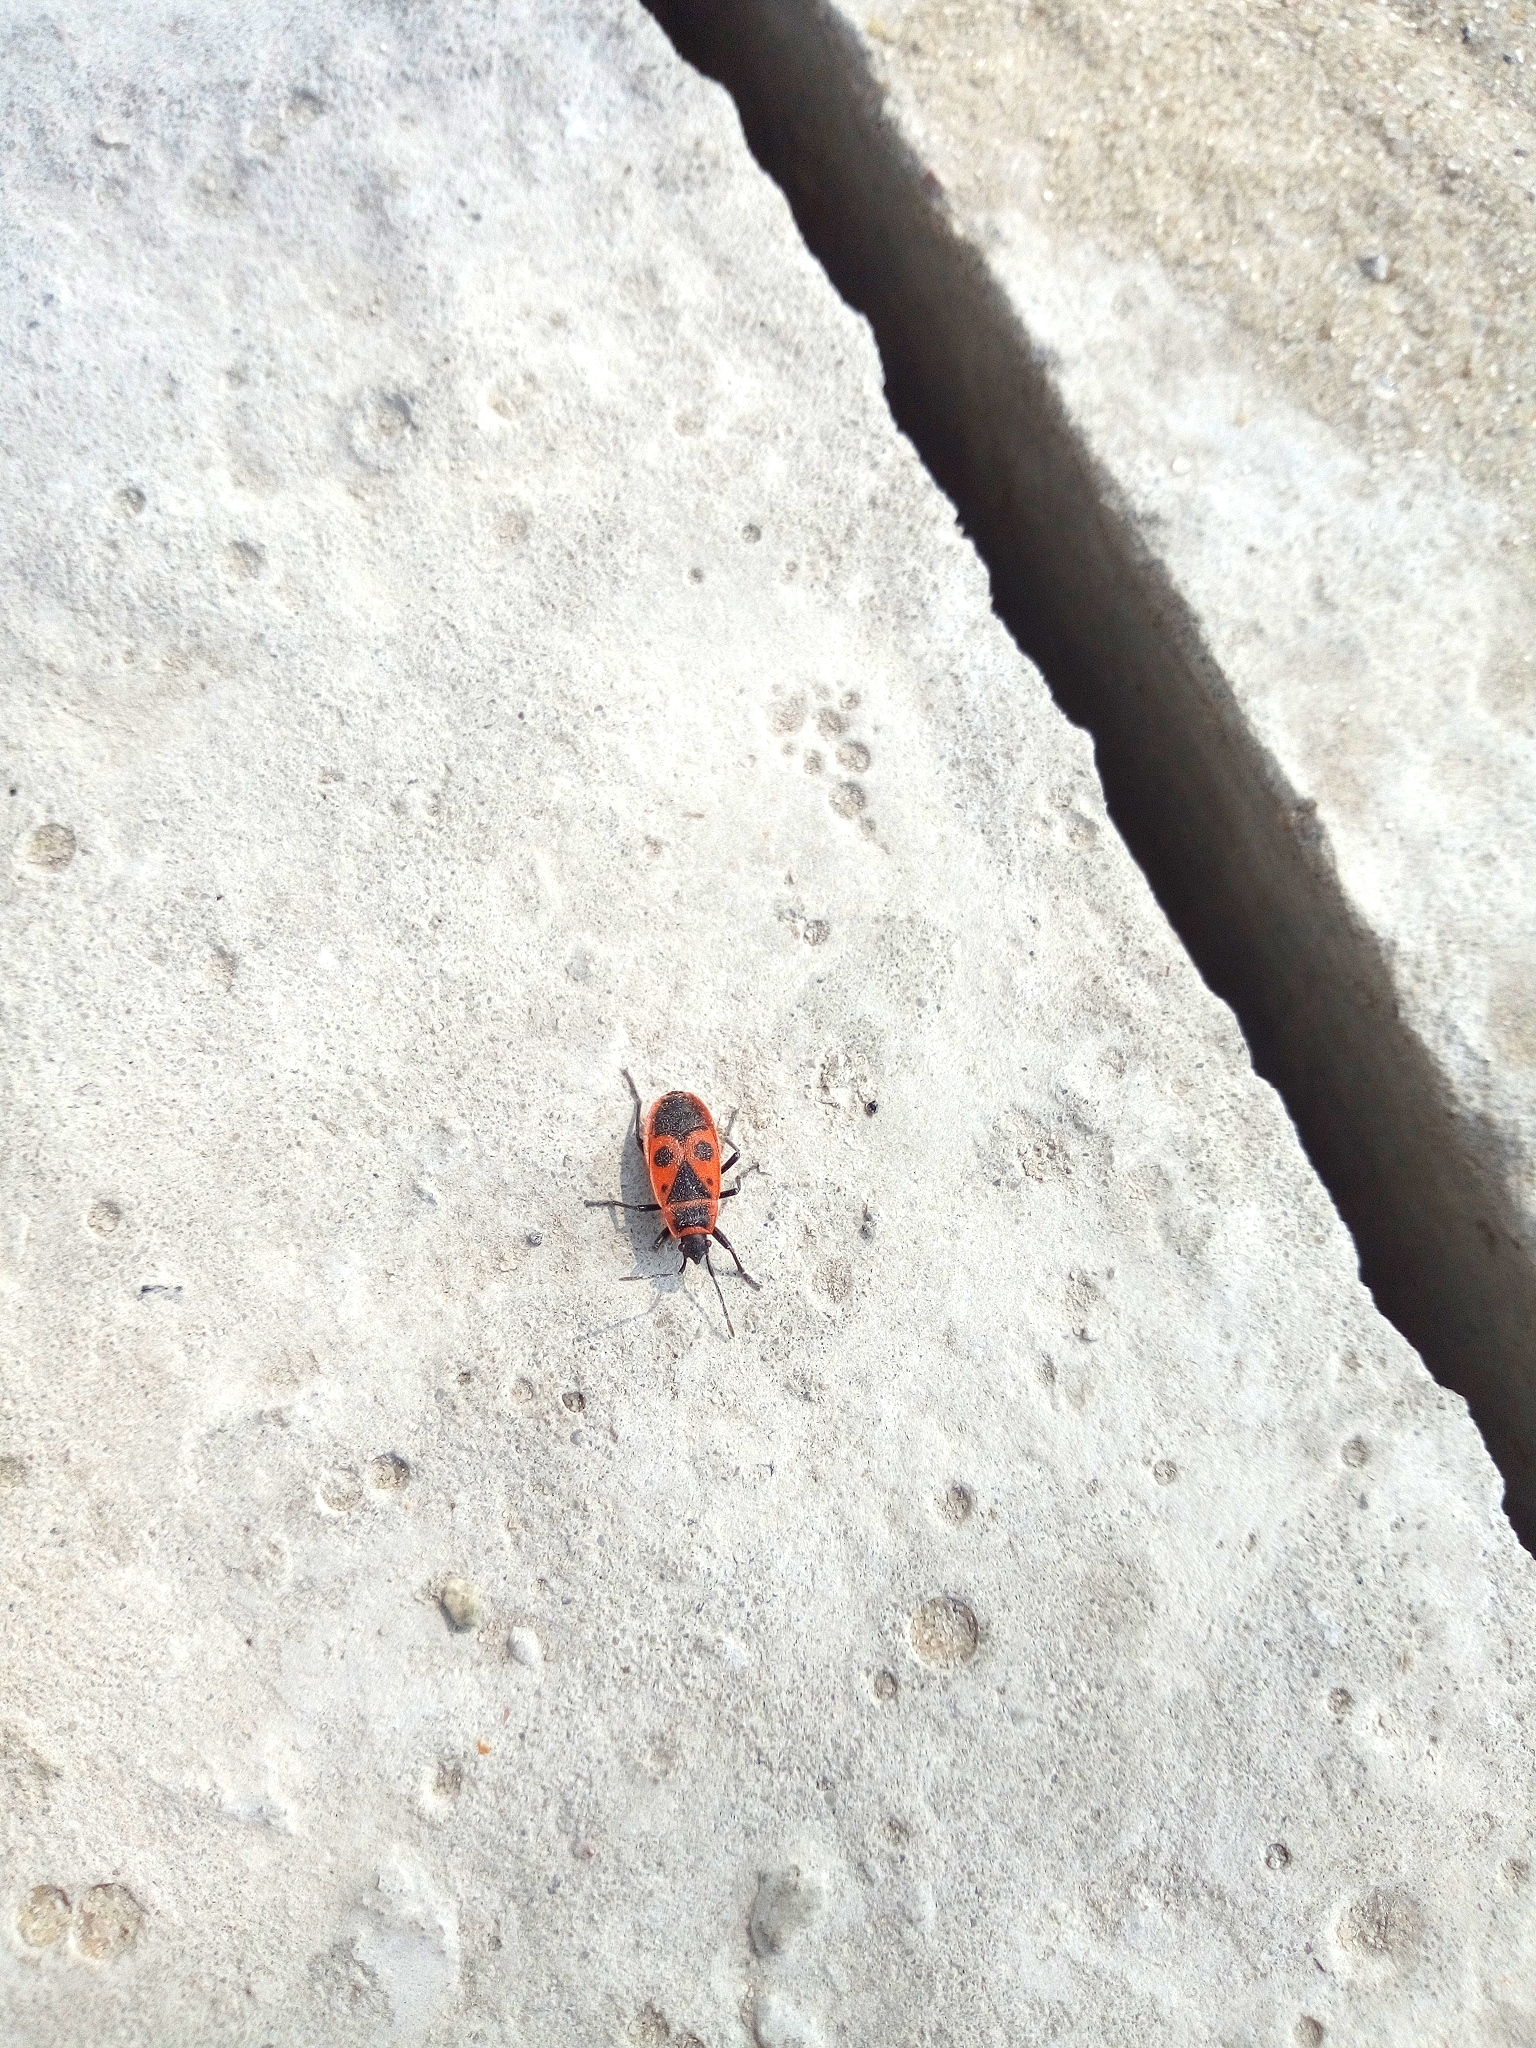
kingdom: Animalia
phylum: Arthropoda
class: Insecta
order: Hemiptera
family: Pyrrhocoridae
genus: Pyrrhocoris
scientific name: Pyrrhocoris apterus
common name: Firebug
